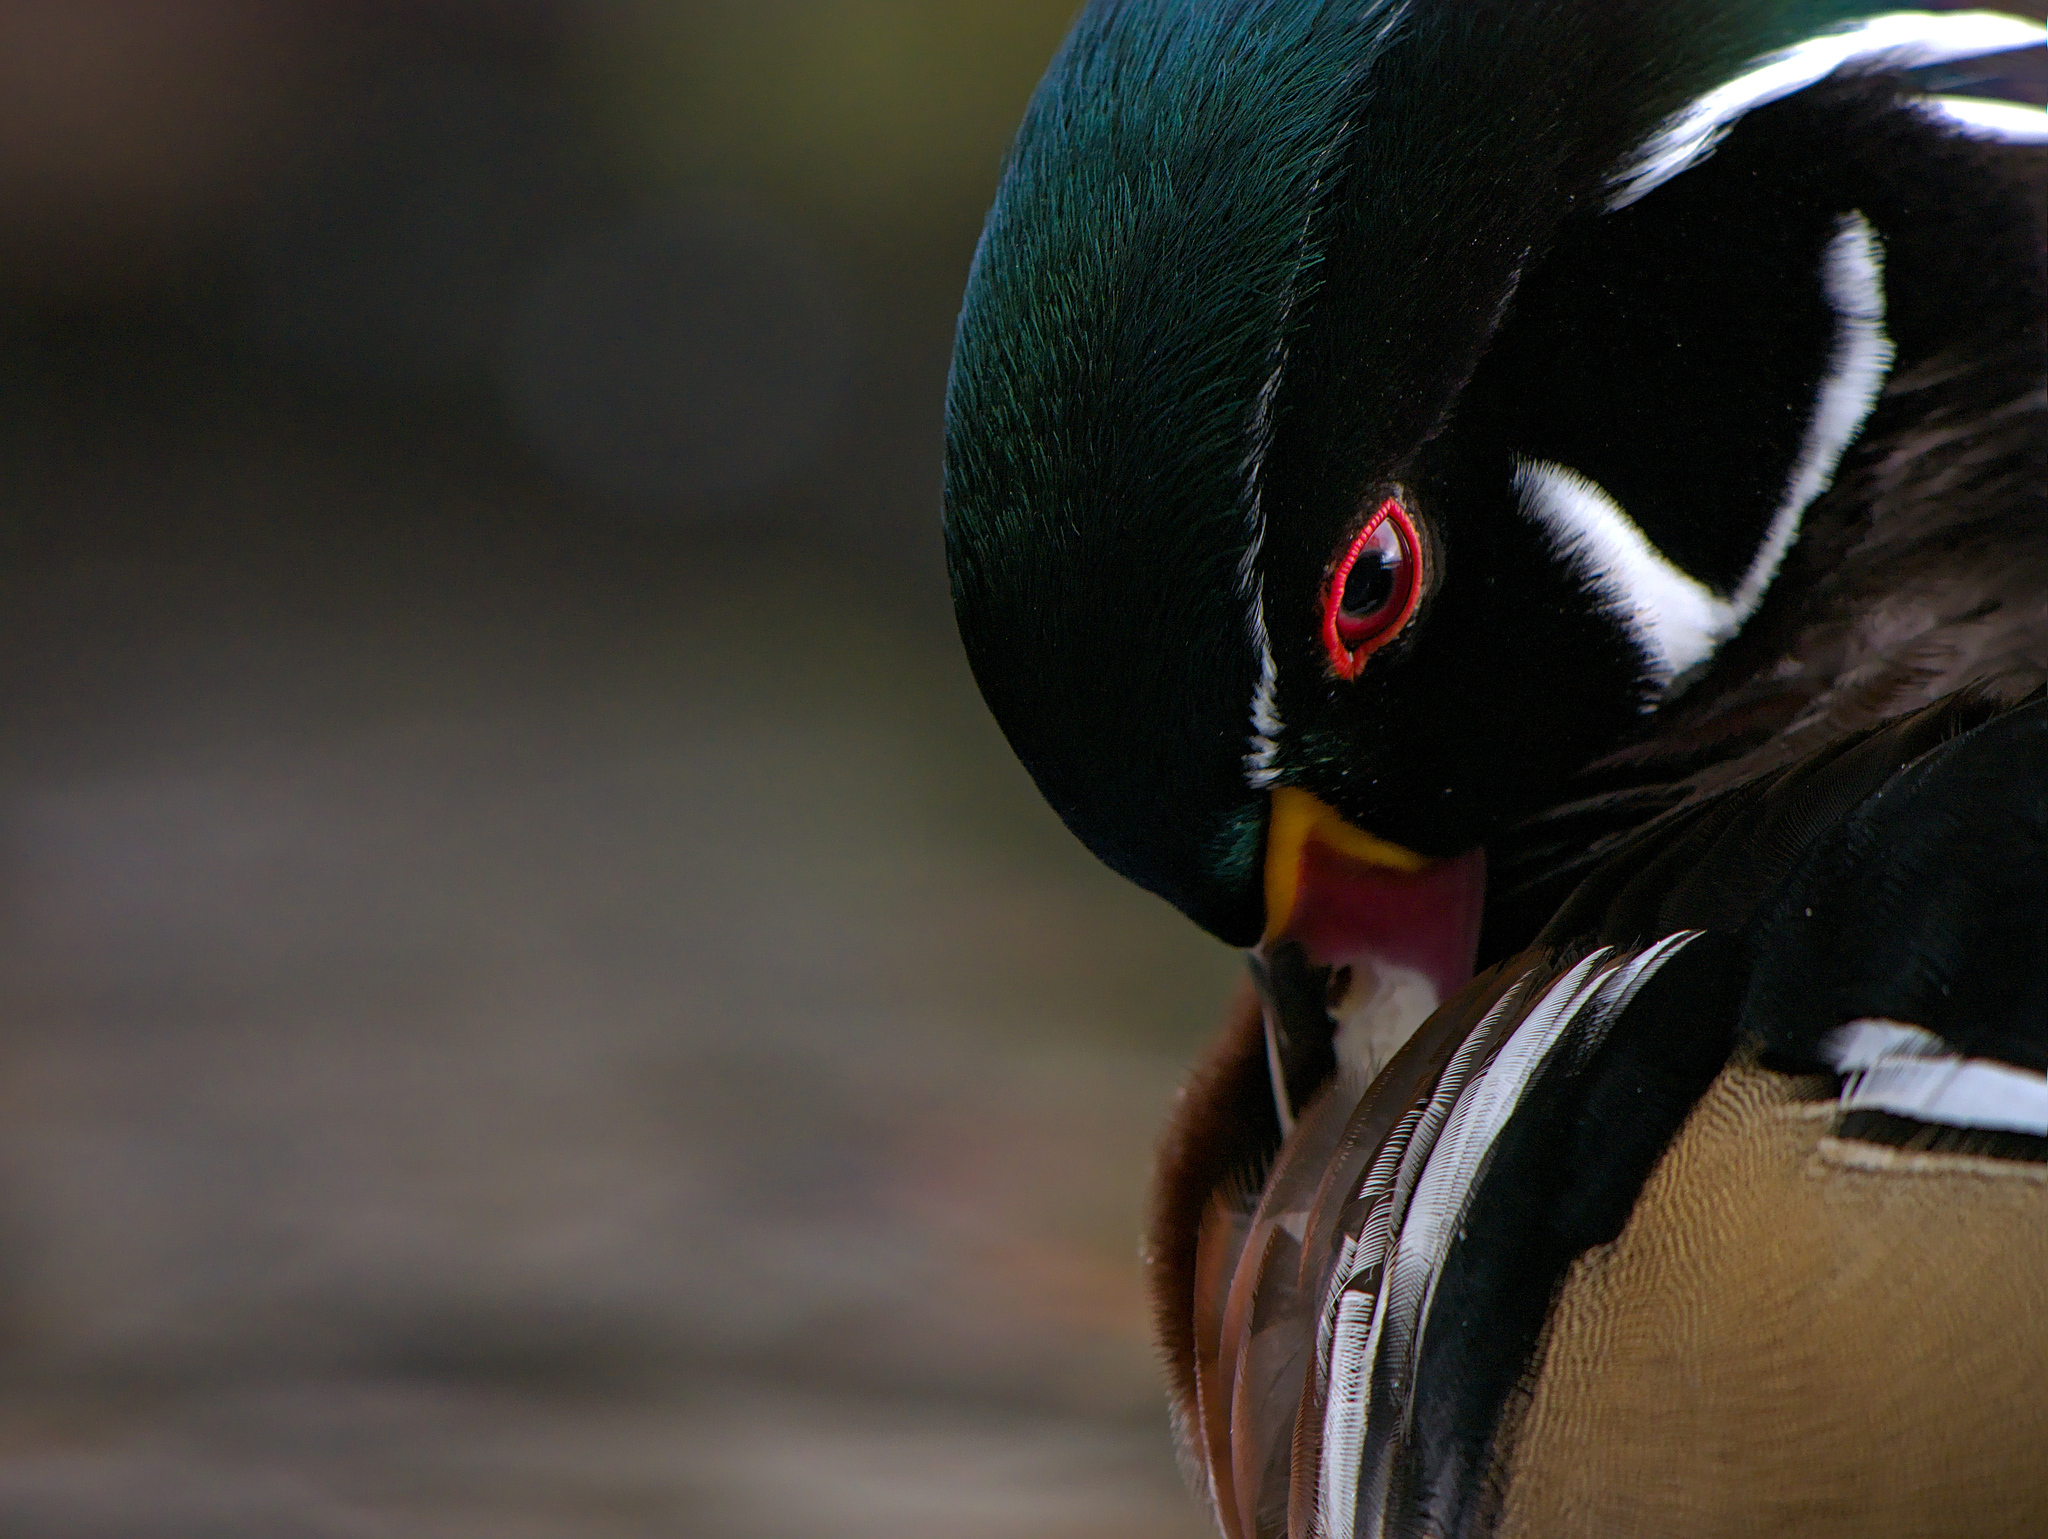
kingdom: Animalia
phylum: Chordata
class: Aves
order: Anseriformes
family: Anatidae
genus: Aix
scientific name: Aix sponsa
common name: Wood duck
